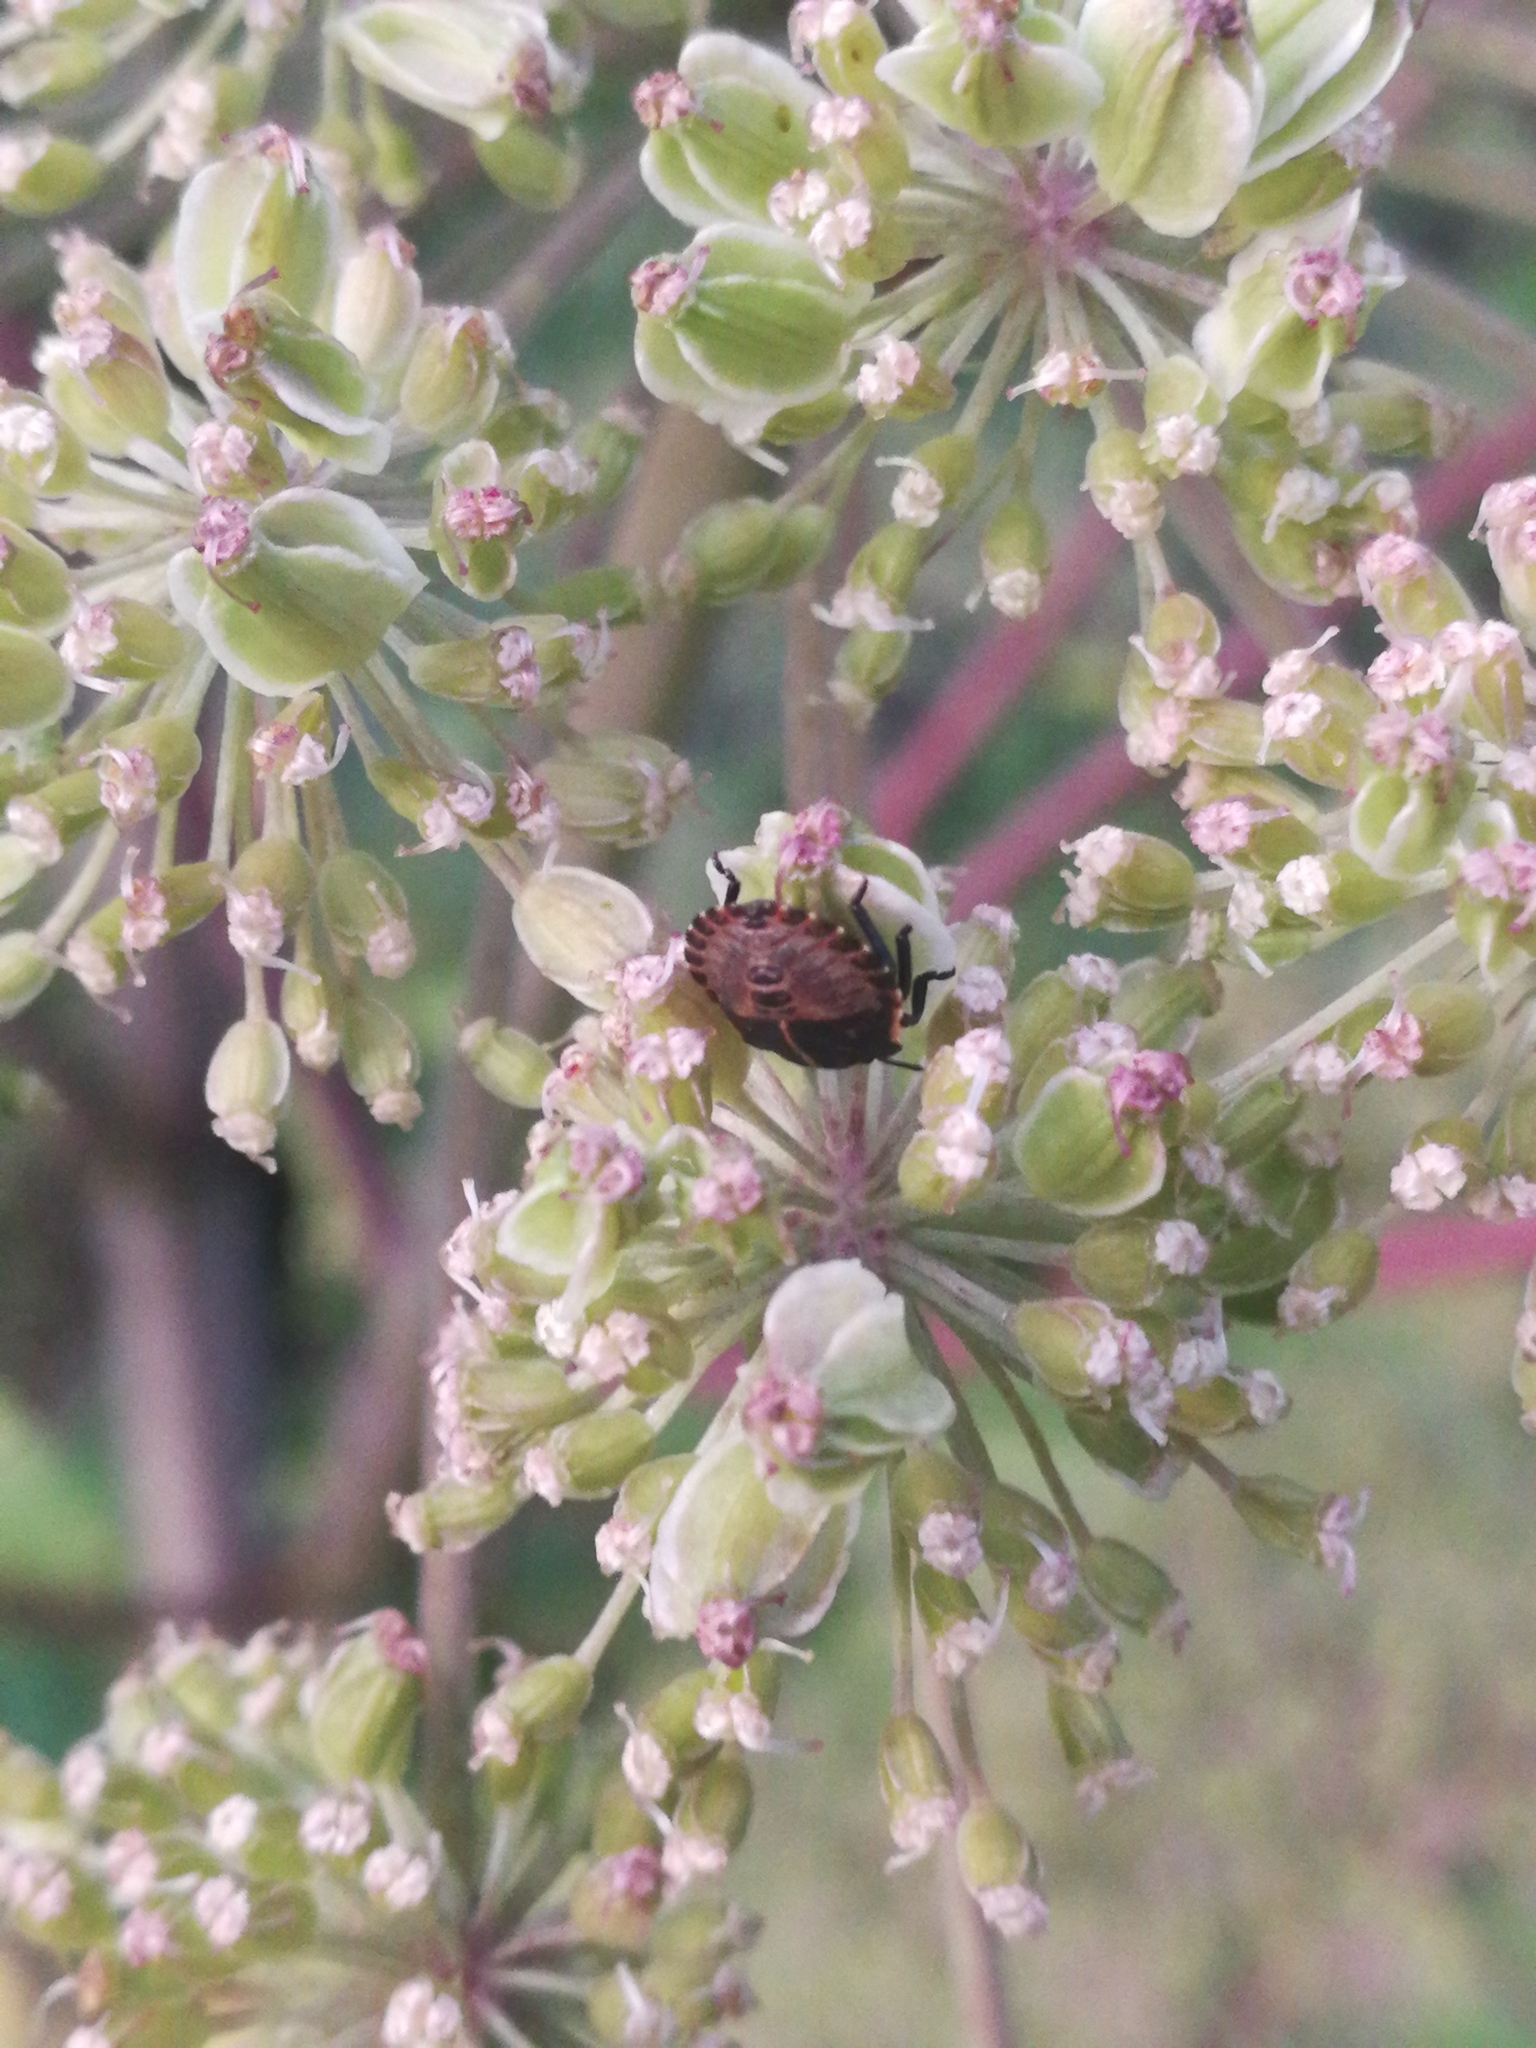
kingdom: Animalia
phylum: Arthropoda
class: Insecta
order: Hemiptera
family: Pentatomidae
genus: Graphosoma
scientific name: Graphosoma italicum
